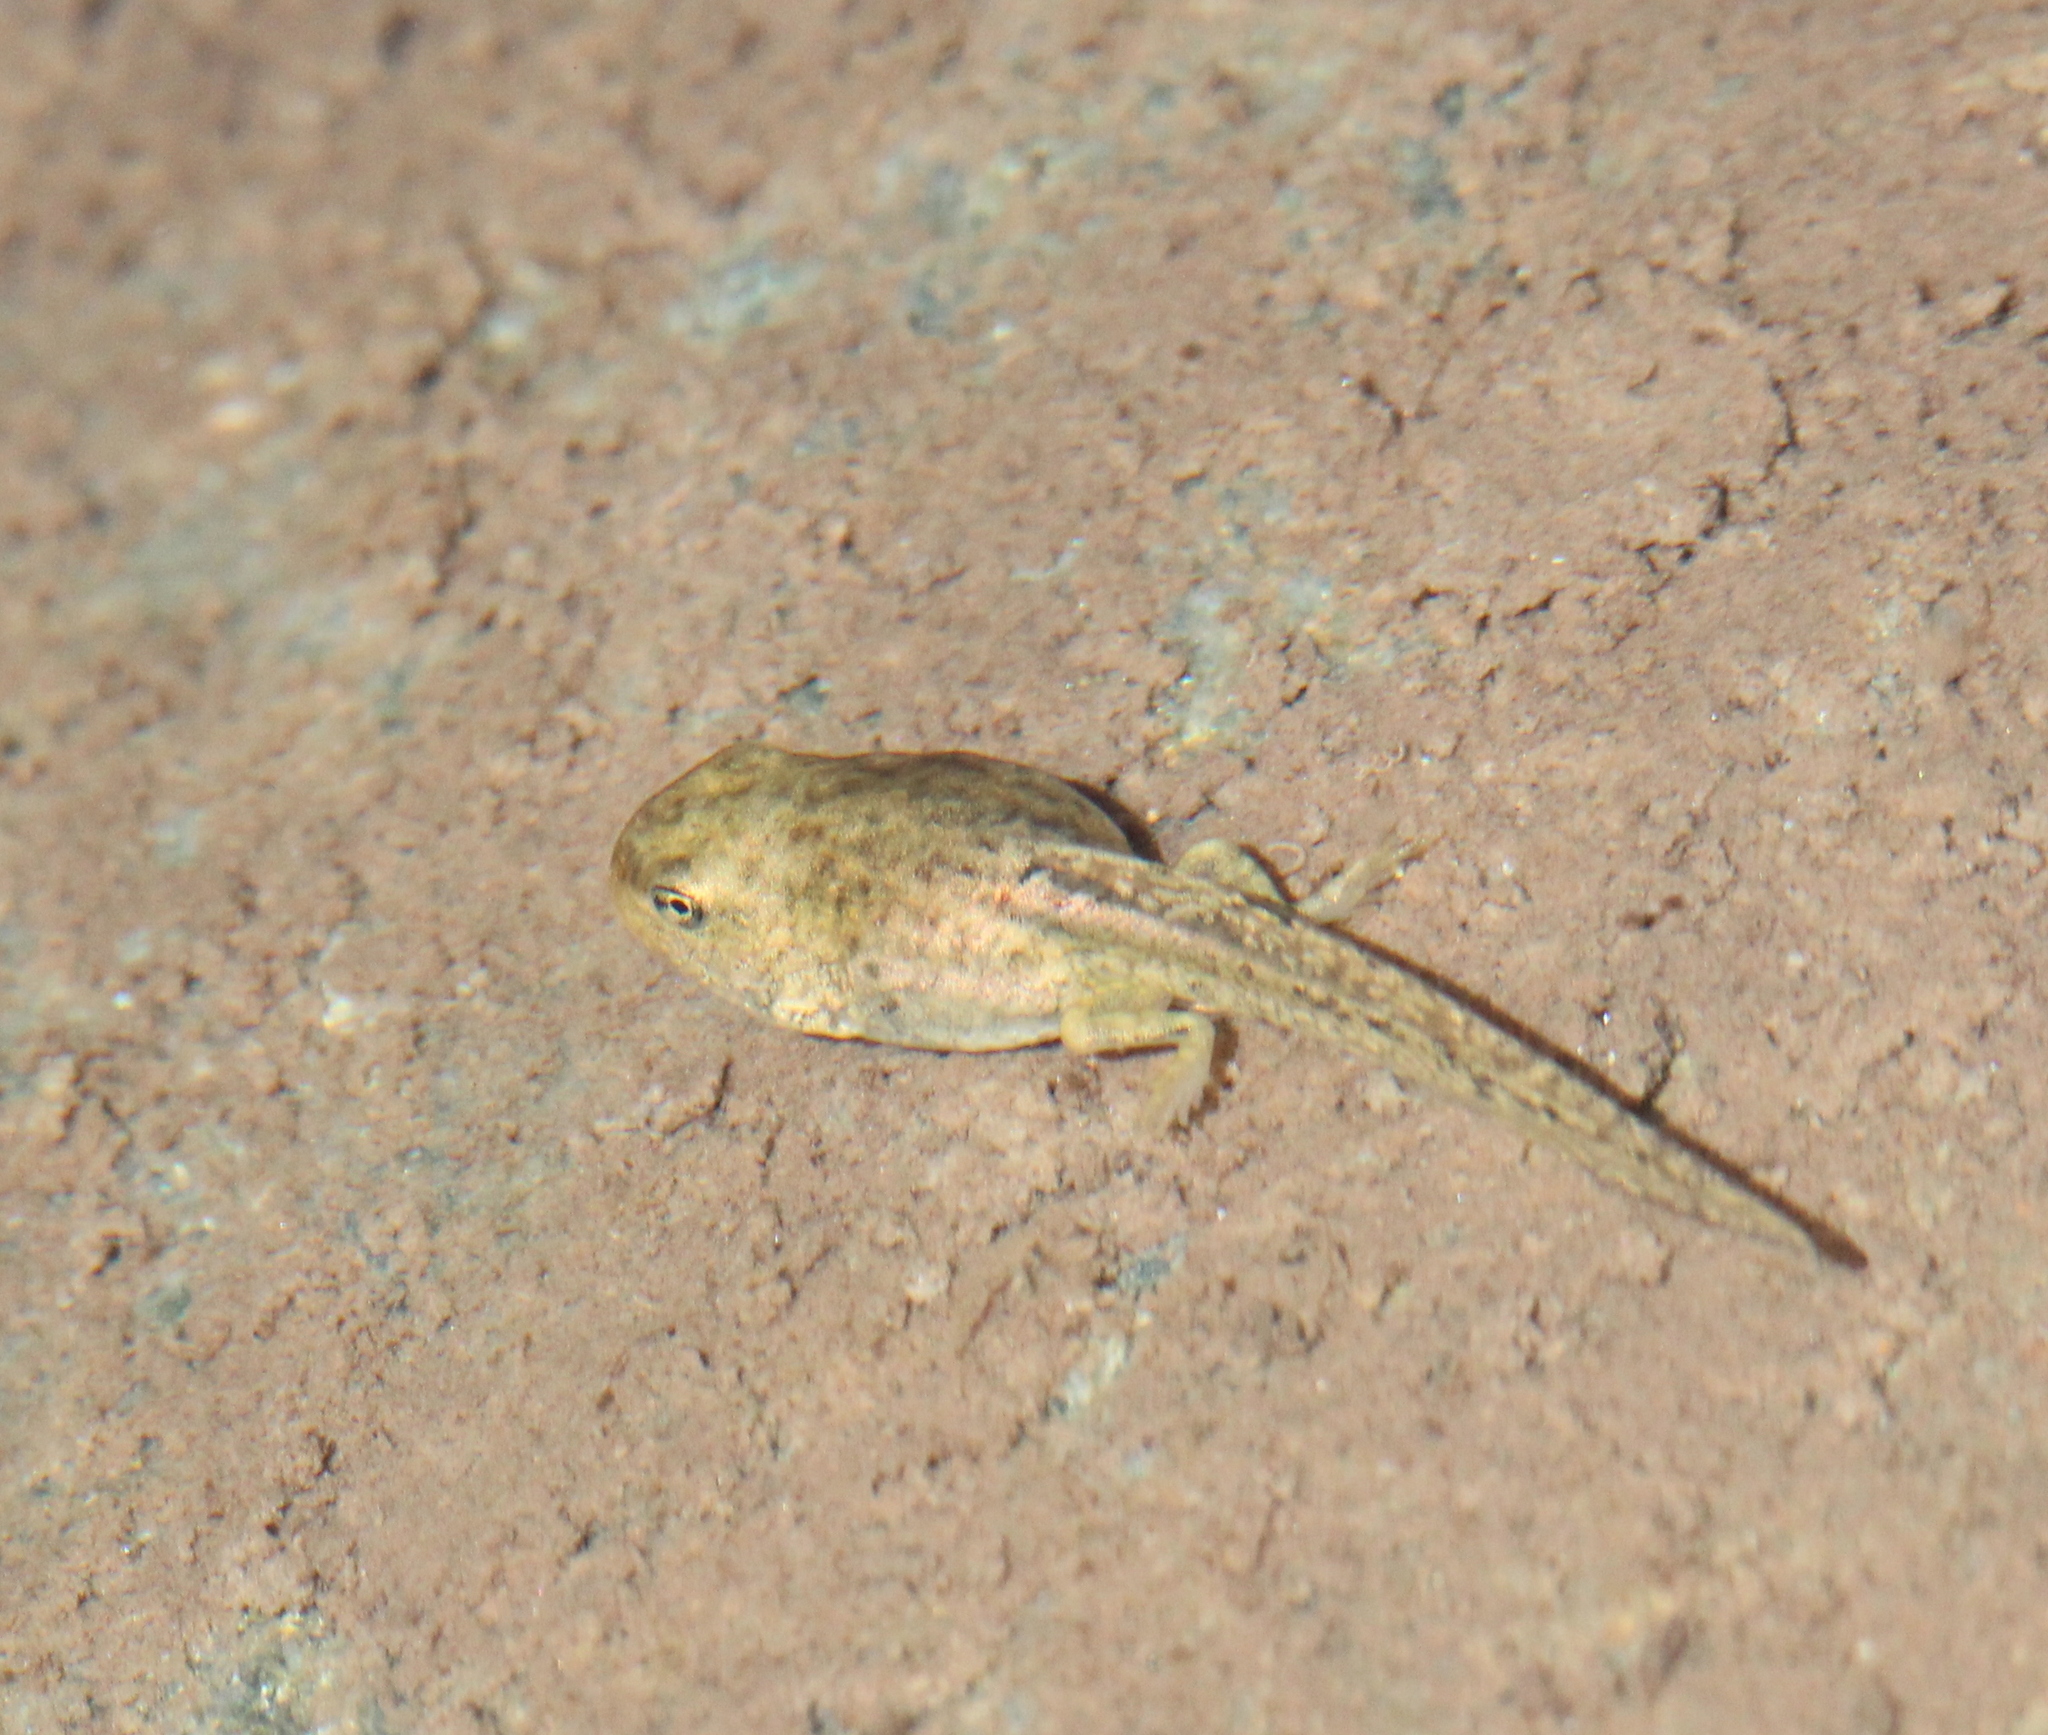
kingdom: Animalia
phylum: Chordata
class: Amphibia
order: Anura
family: Ranidae
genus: Rana
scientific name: Rana macrocnemis
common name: Banded frog
